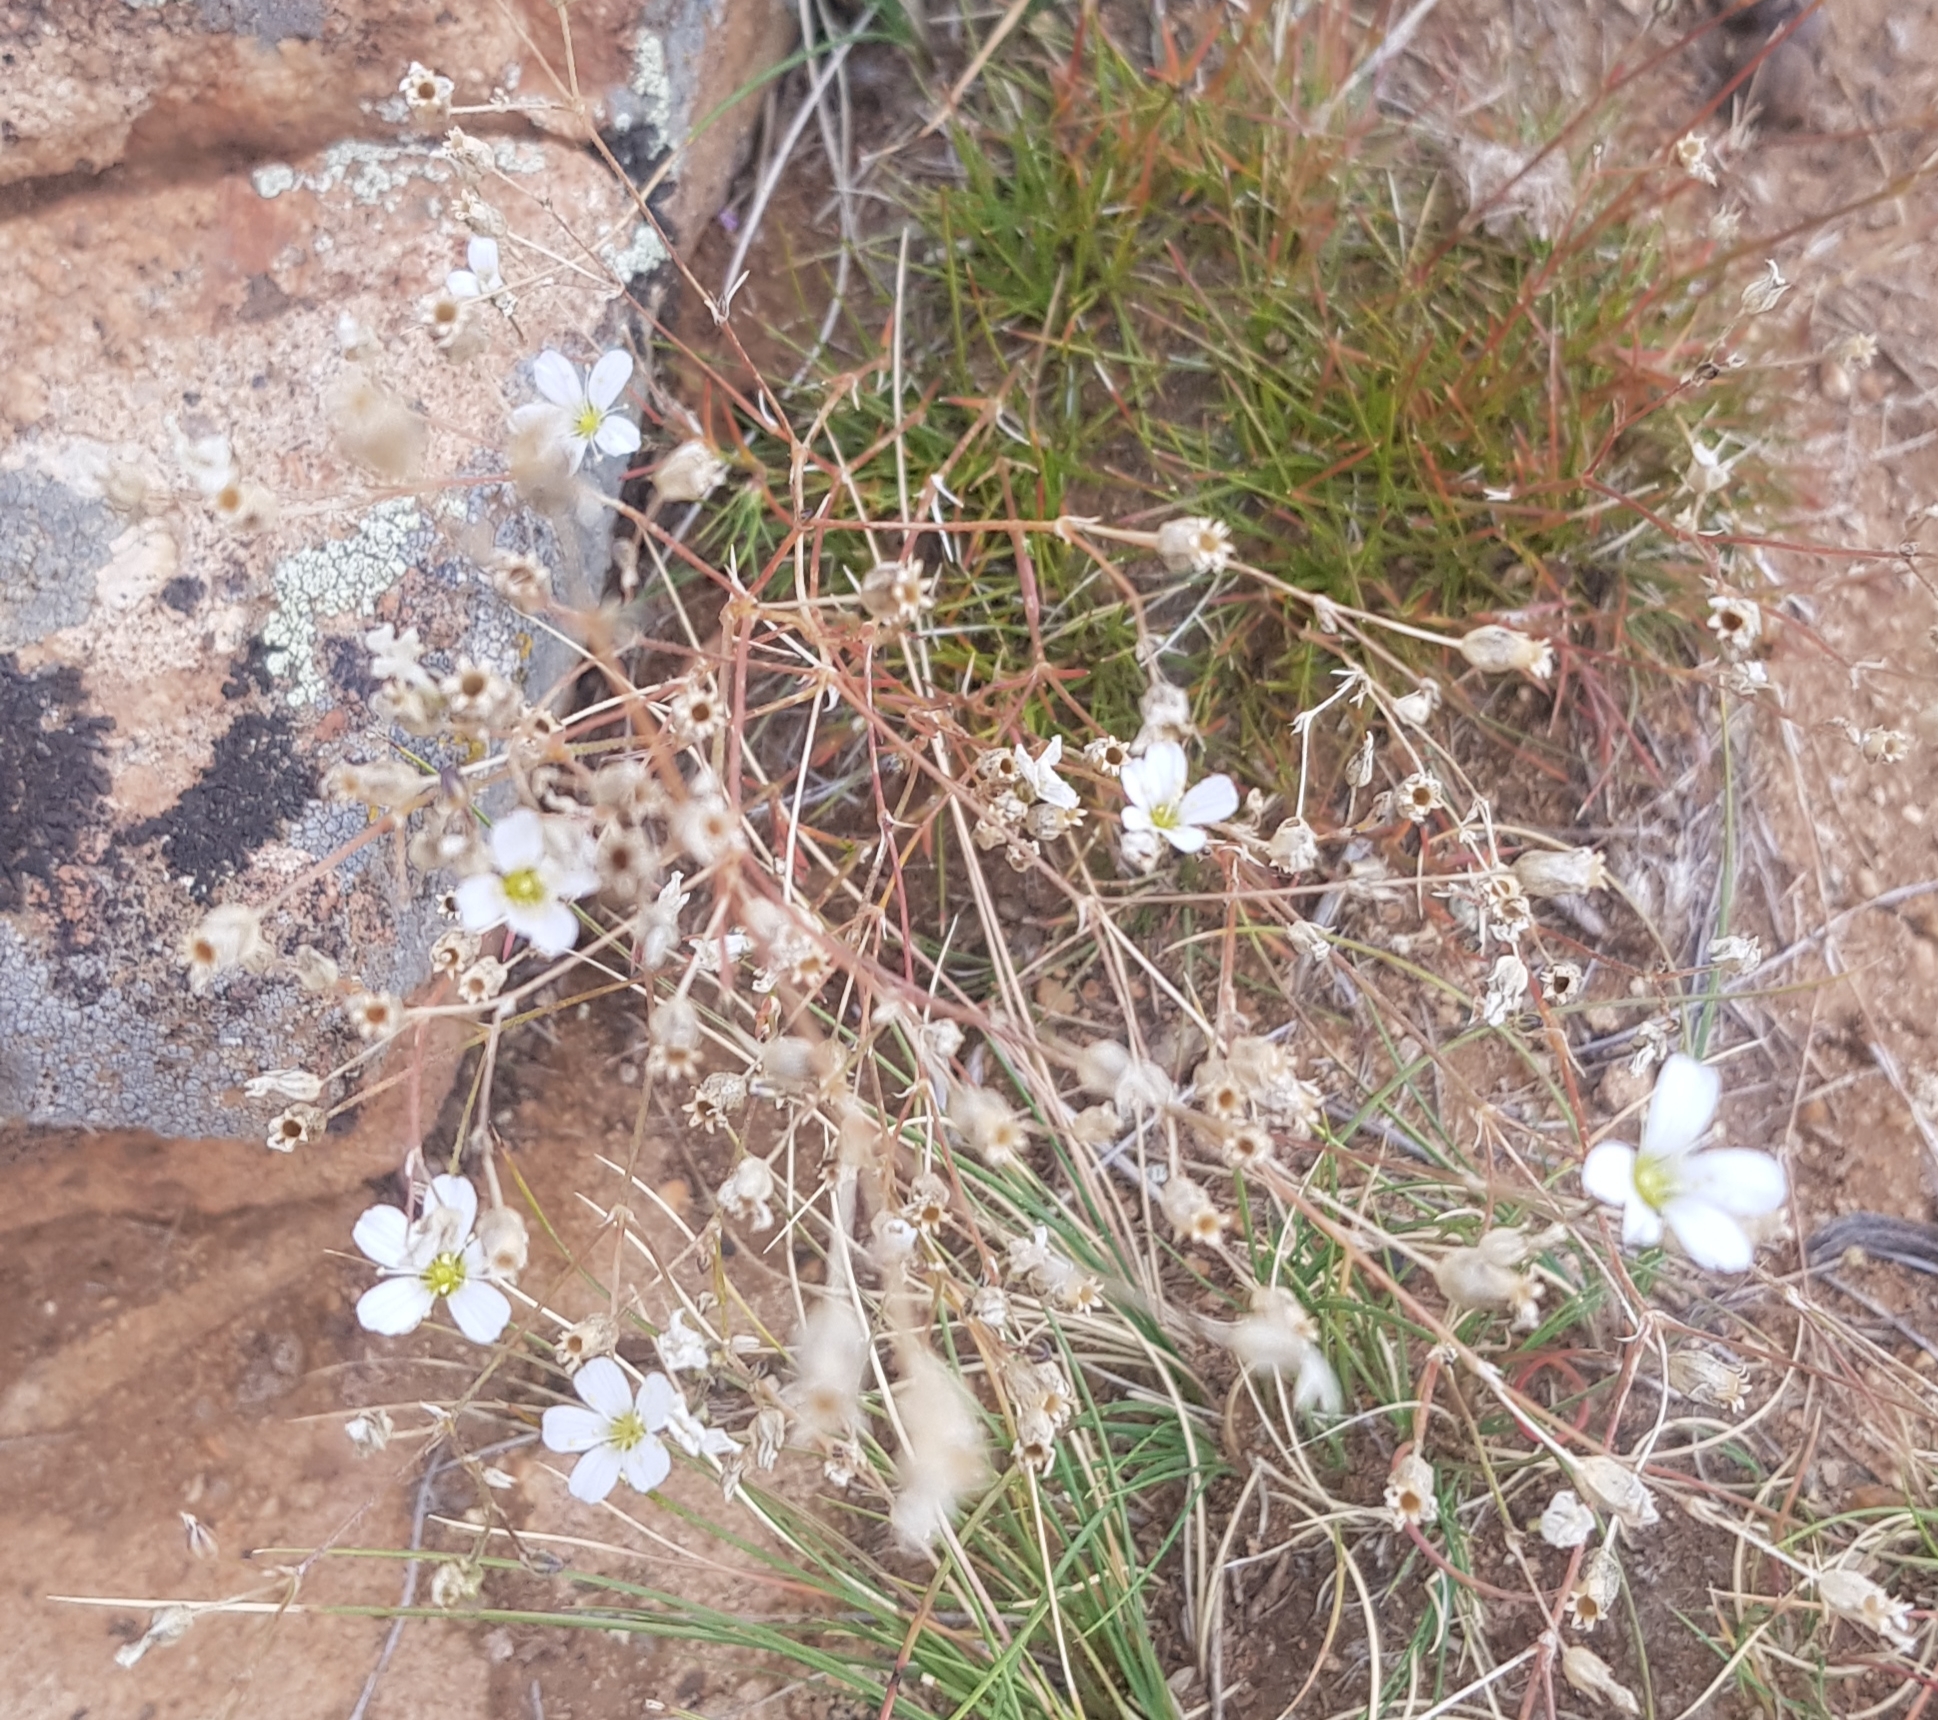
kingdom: Plantae
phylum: Tracheophyta
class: Magnoliopsida
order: Caryophyllales
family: Caryophyllaceae
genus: Eremogone
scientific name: Eremogone capillaris
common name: Slender mountain sandwort
